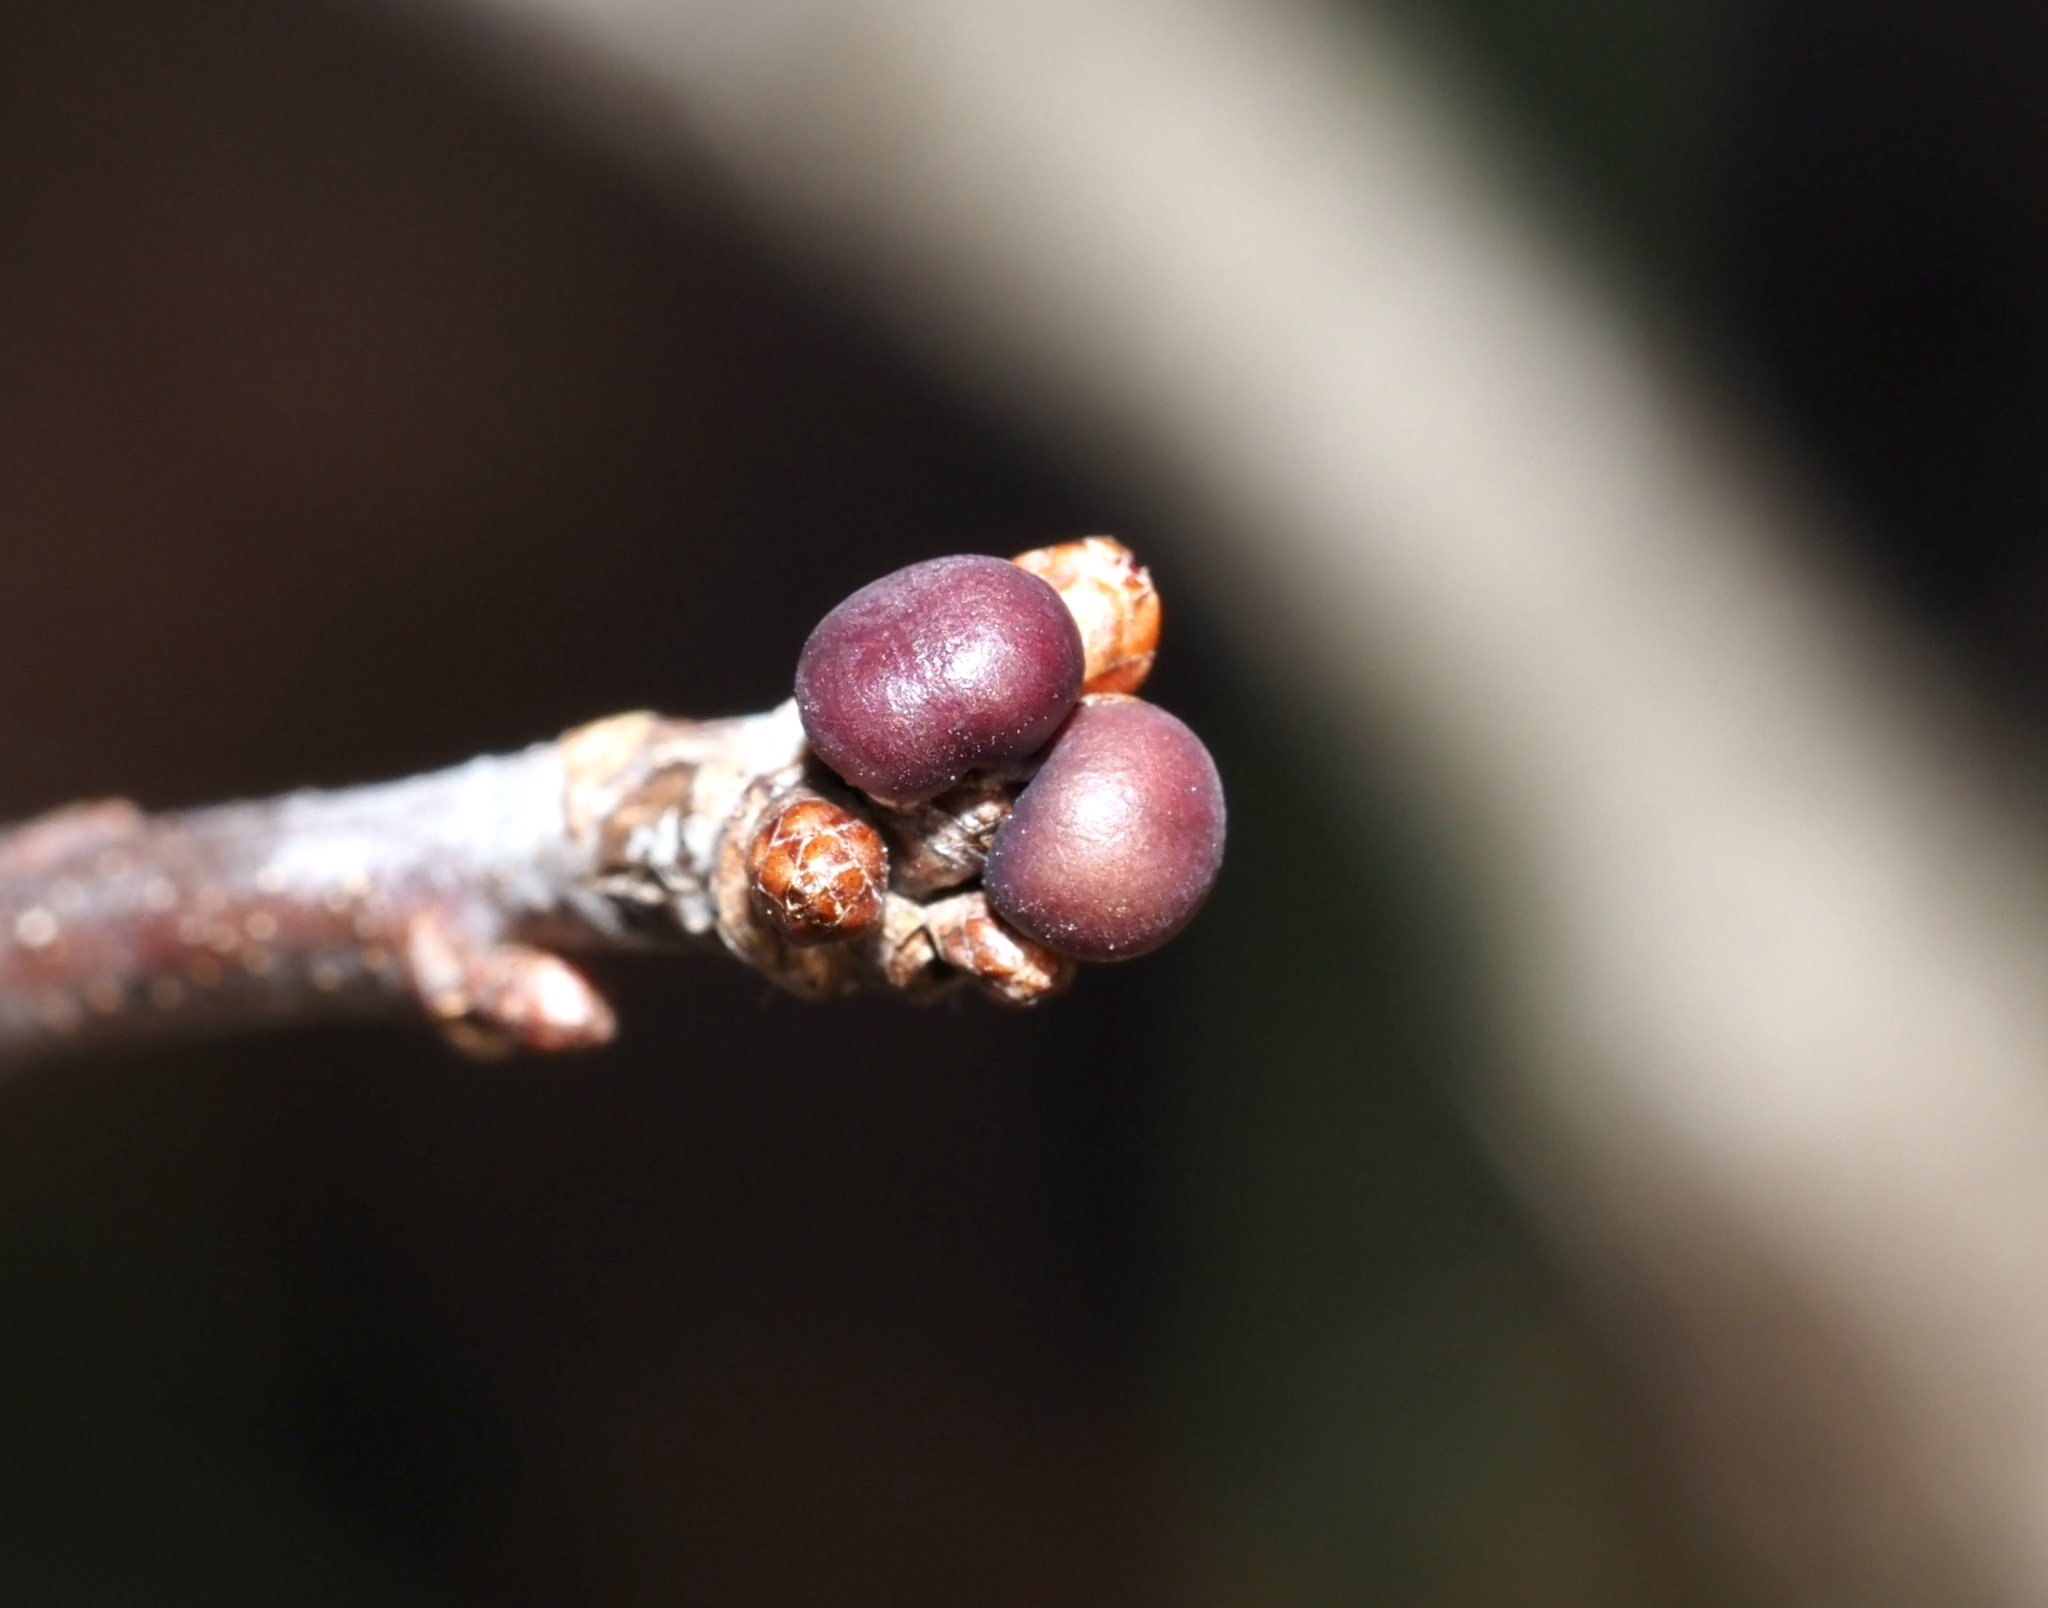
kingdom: Animalia
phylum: Arthropoda
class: Insecta
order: Hymenoptera
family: Cynipidae
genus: Neuroterus
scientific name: Neuroterus
